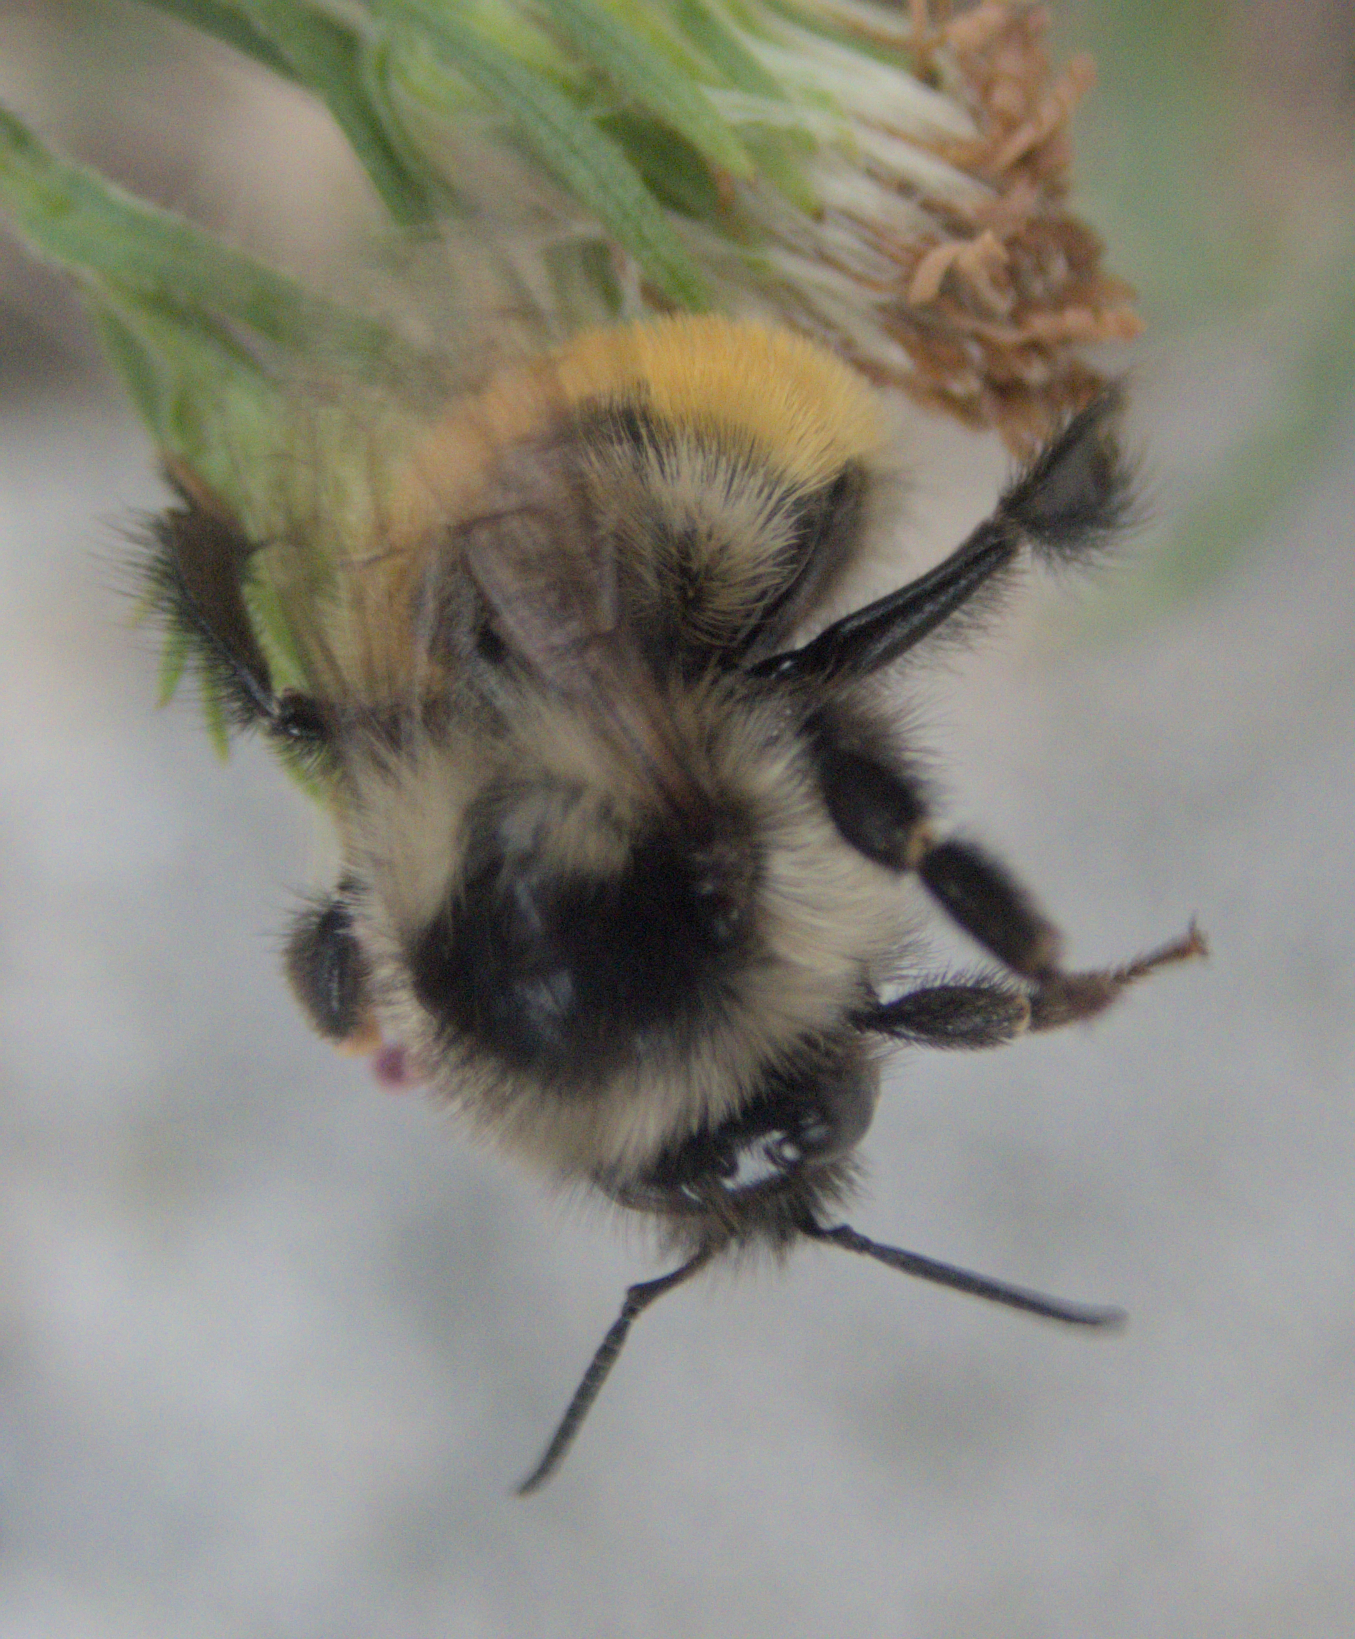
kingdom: Animalia
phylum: Arthropoda
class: Insecta
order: Hymenoptera
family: Apidae
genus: Bombus
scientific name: Bombus ternarius
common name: Tri-colored bumble bee
